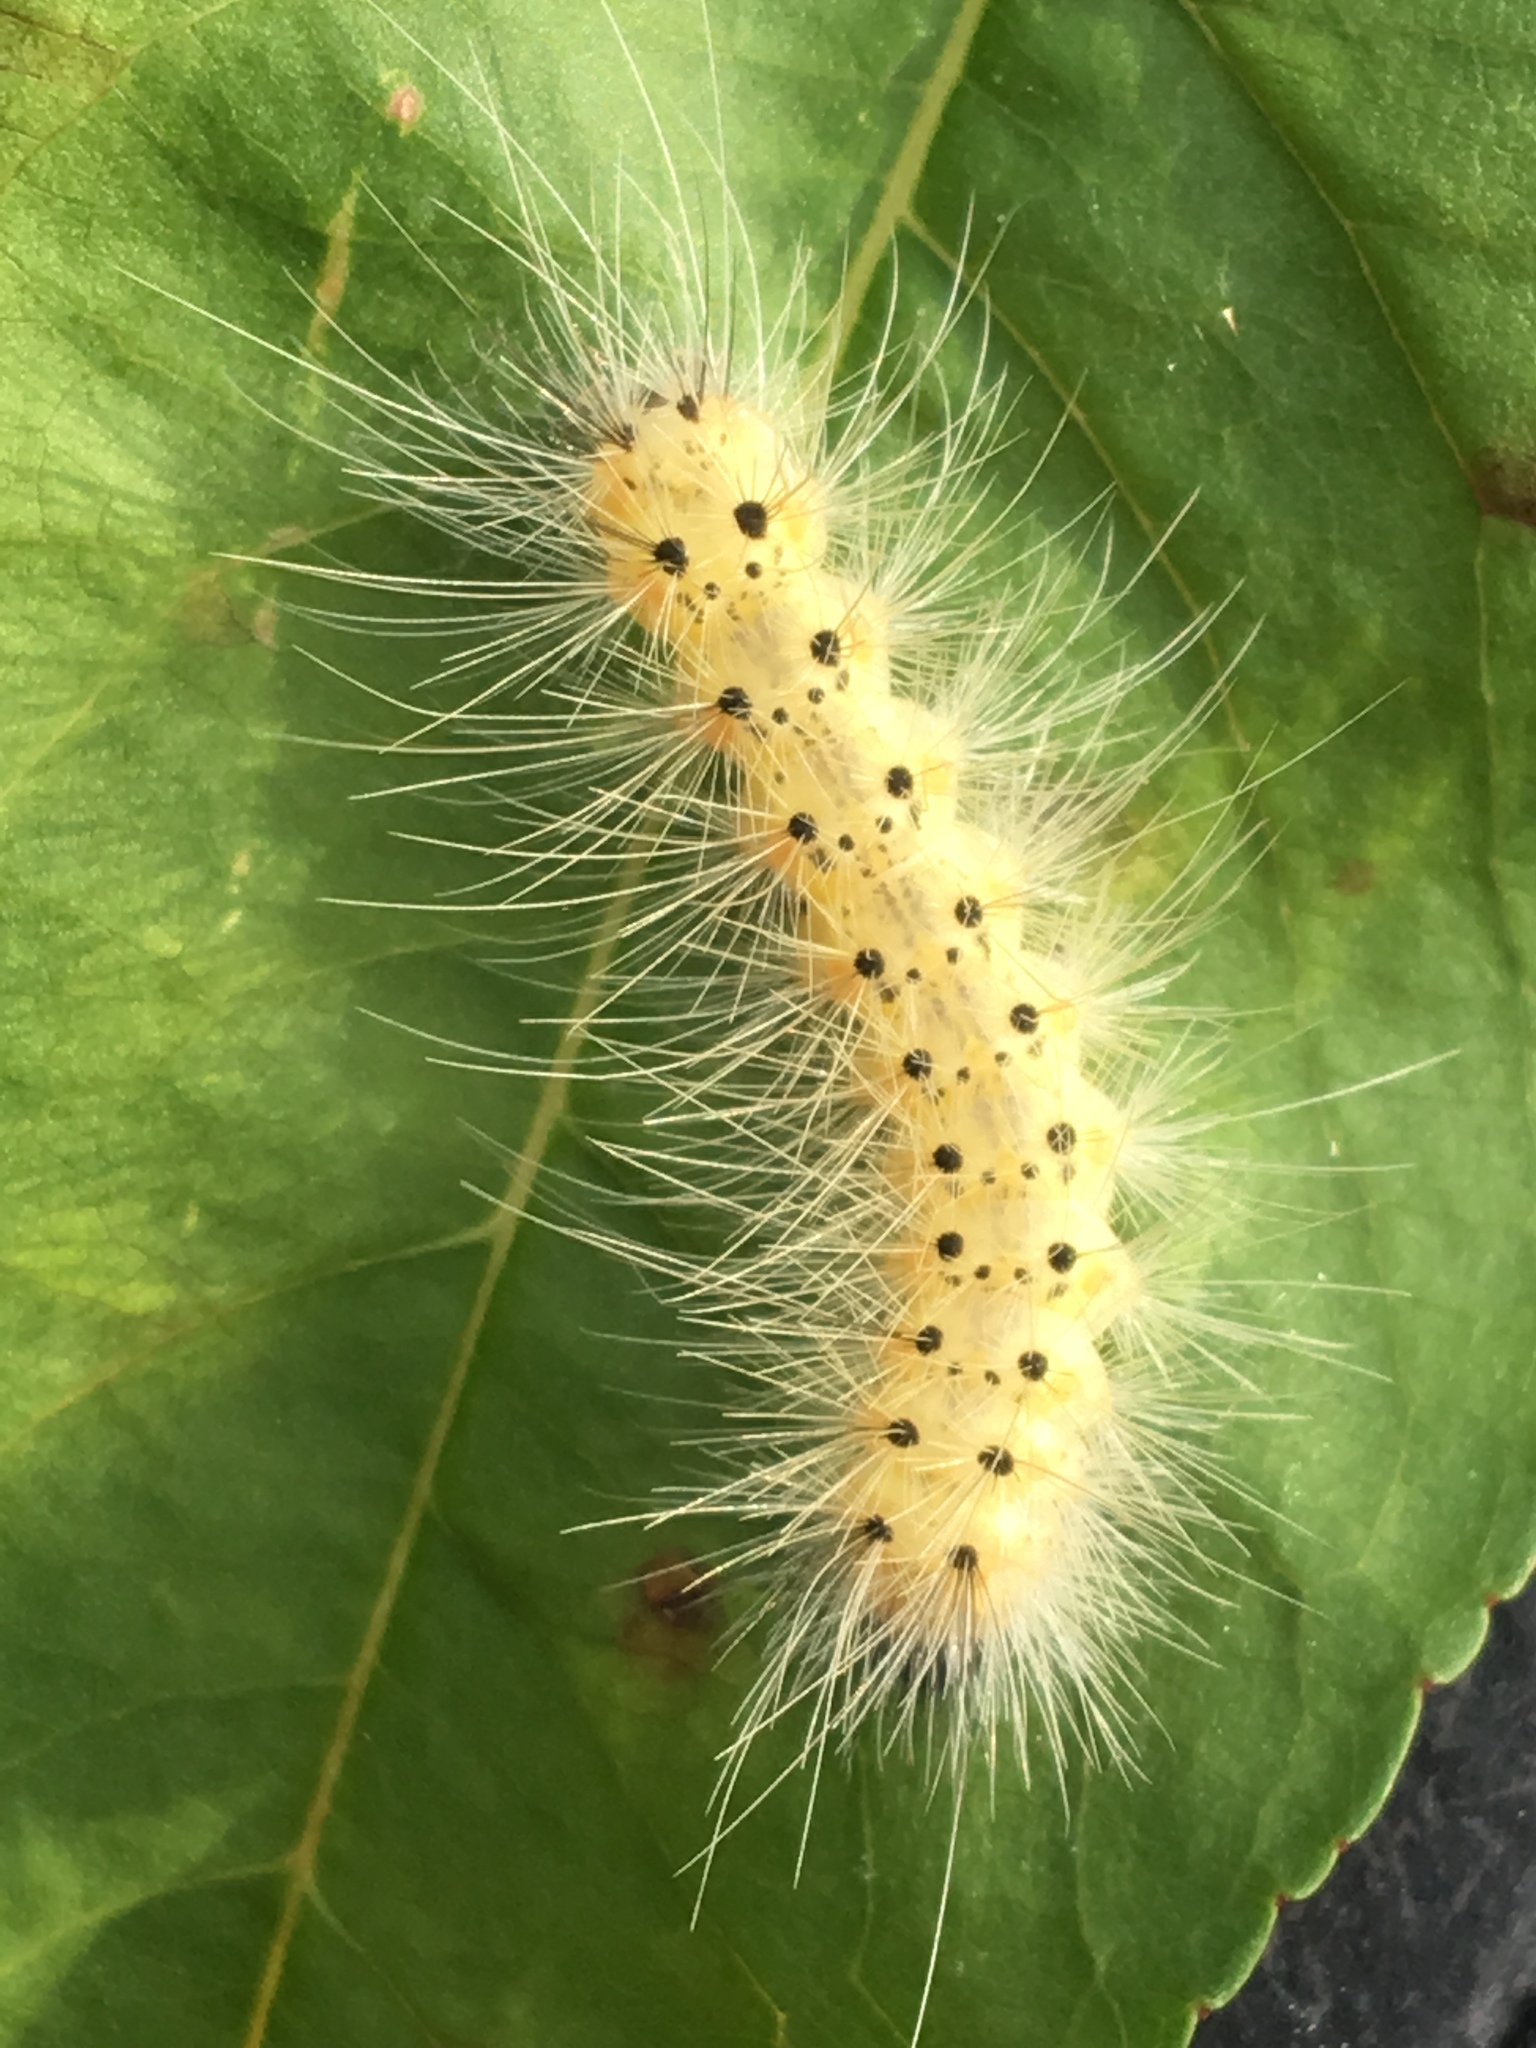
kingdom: Animalia
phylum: Arthropoda
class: Insecta
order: Lepidoptera
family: Erebidae
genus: Hyphantria
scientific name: Hyphantria cunea
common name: American white moth
